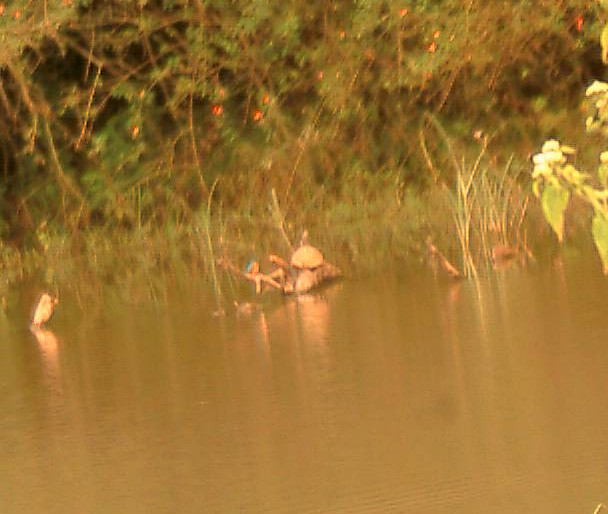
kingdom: Animalia
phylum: Chordata
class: Testudines
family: Geoemydidae
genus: Melanochelys
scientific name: Melanochelys trijuga
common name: Indian black turtle
